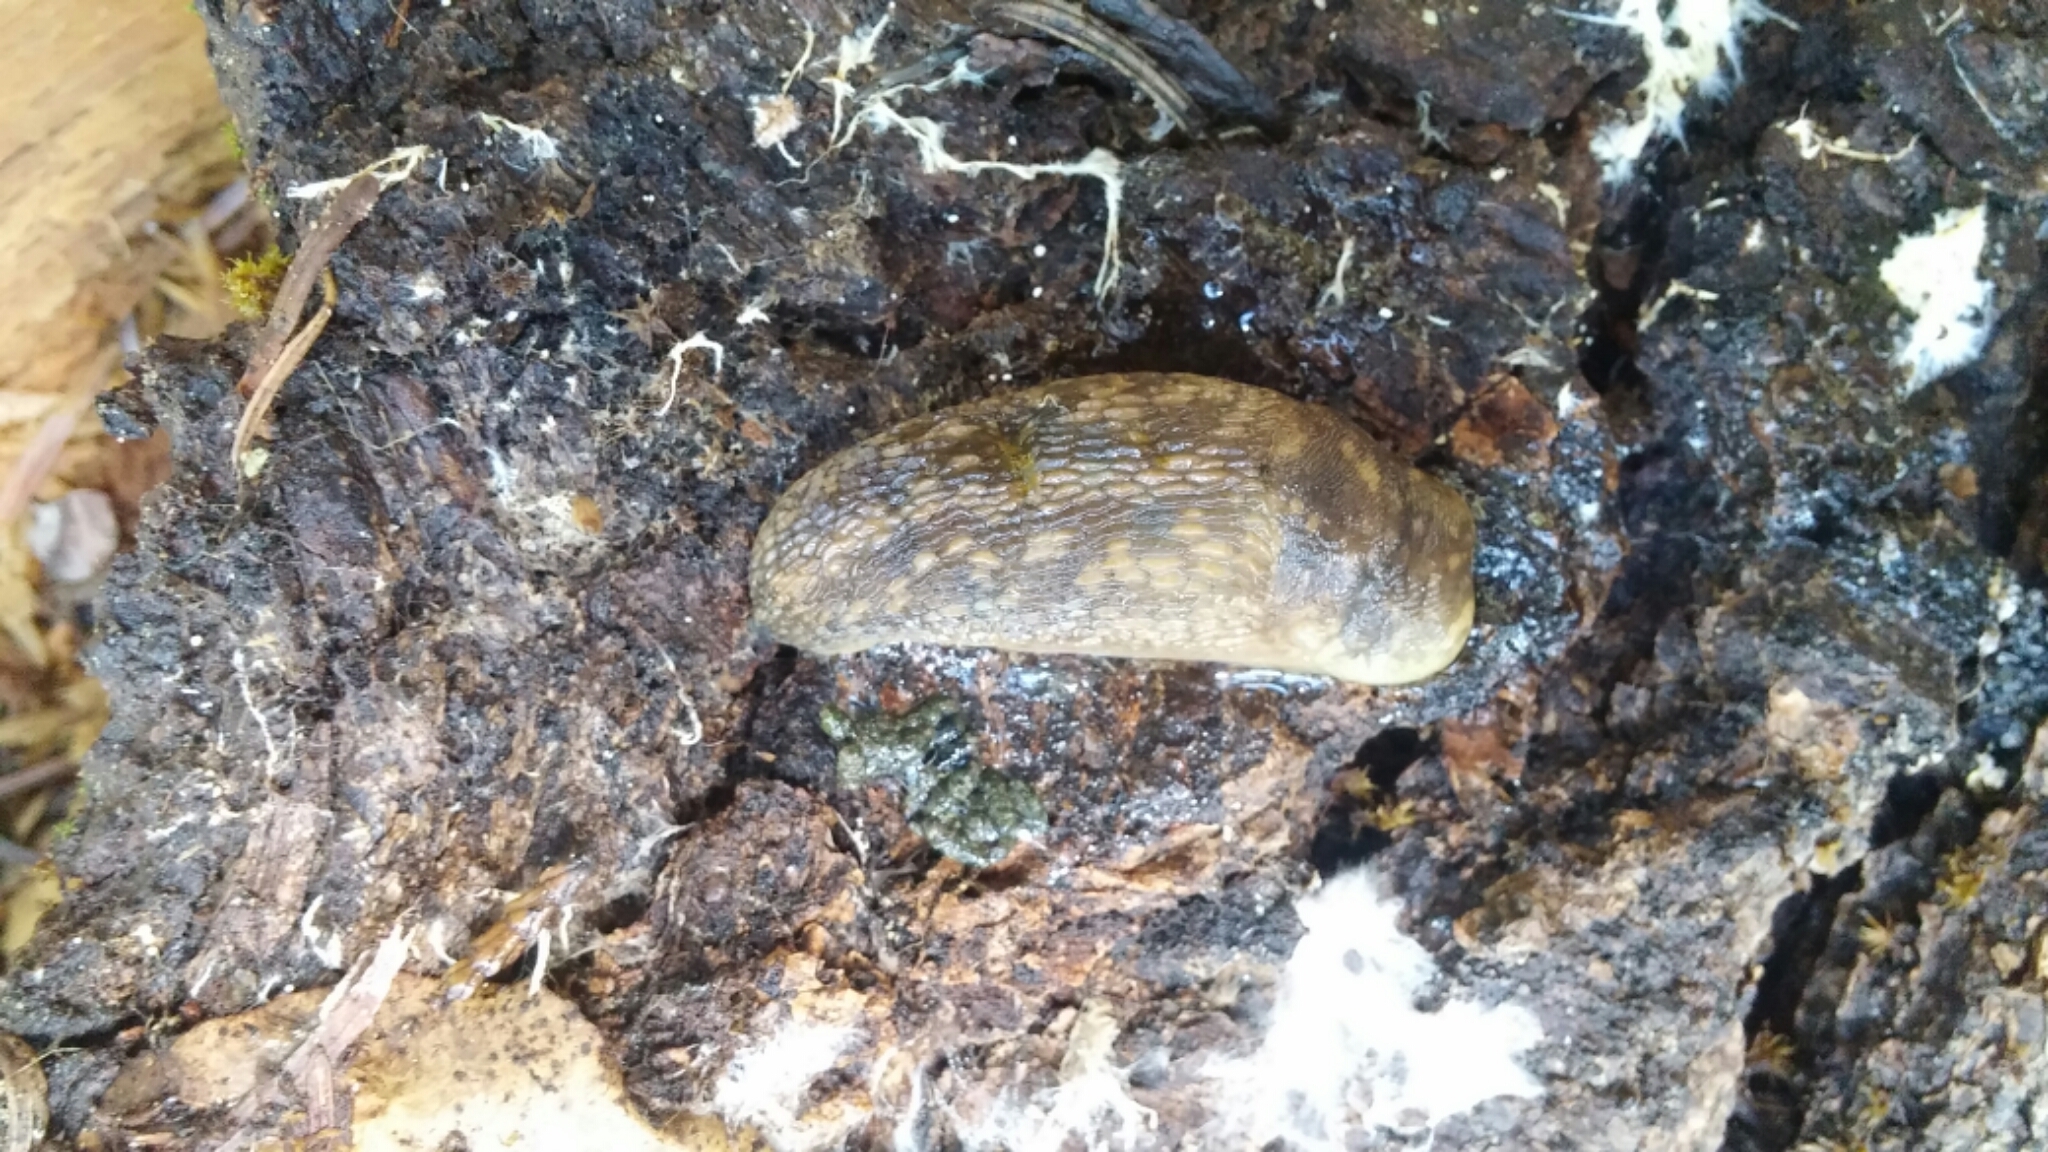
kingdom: Animalia
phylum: Mollusca
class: Gastropoda
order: Stylommatophora
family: Limacidae
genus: Limacus
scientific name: Limacus flavus
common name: Yellow gardenslug
